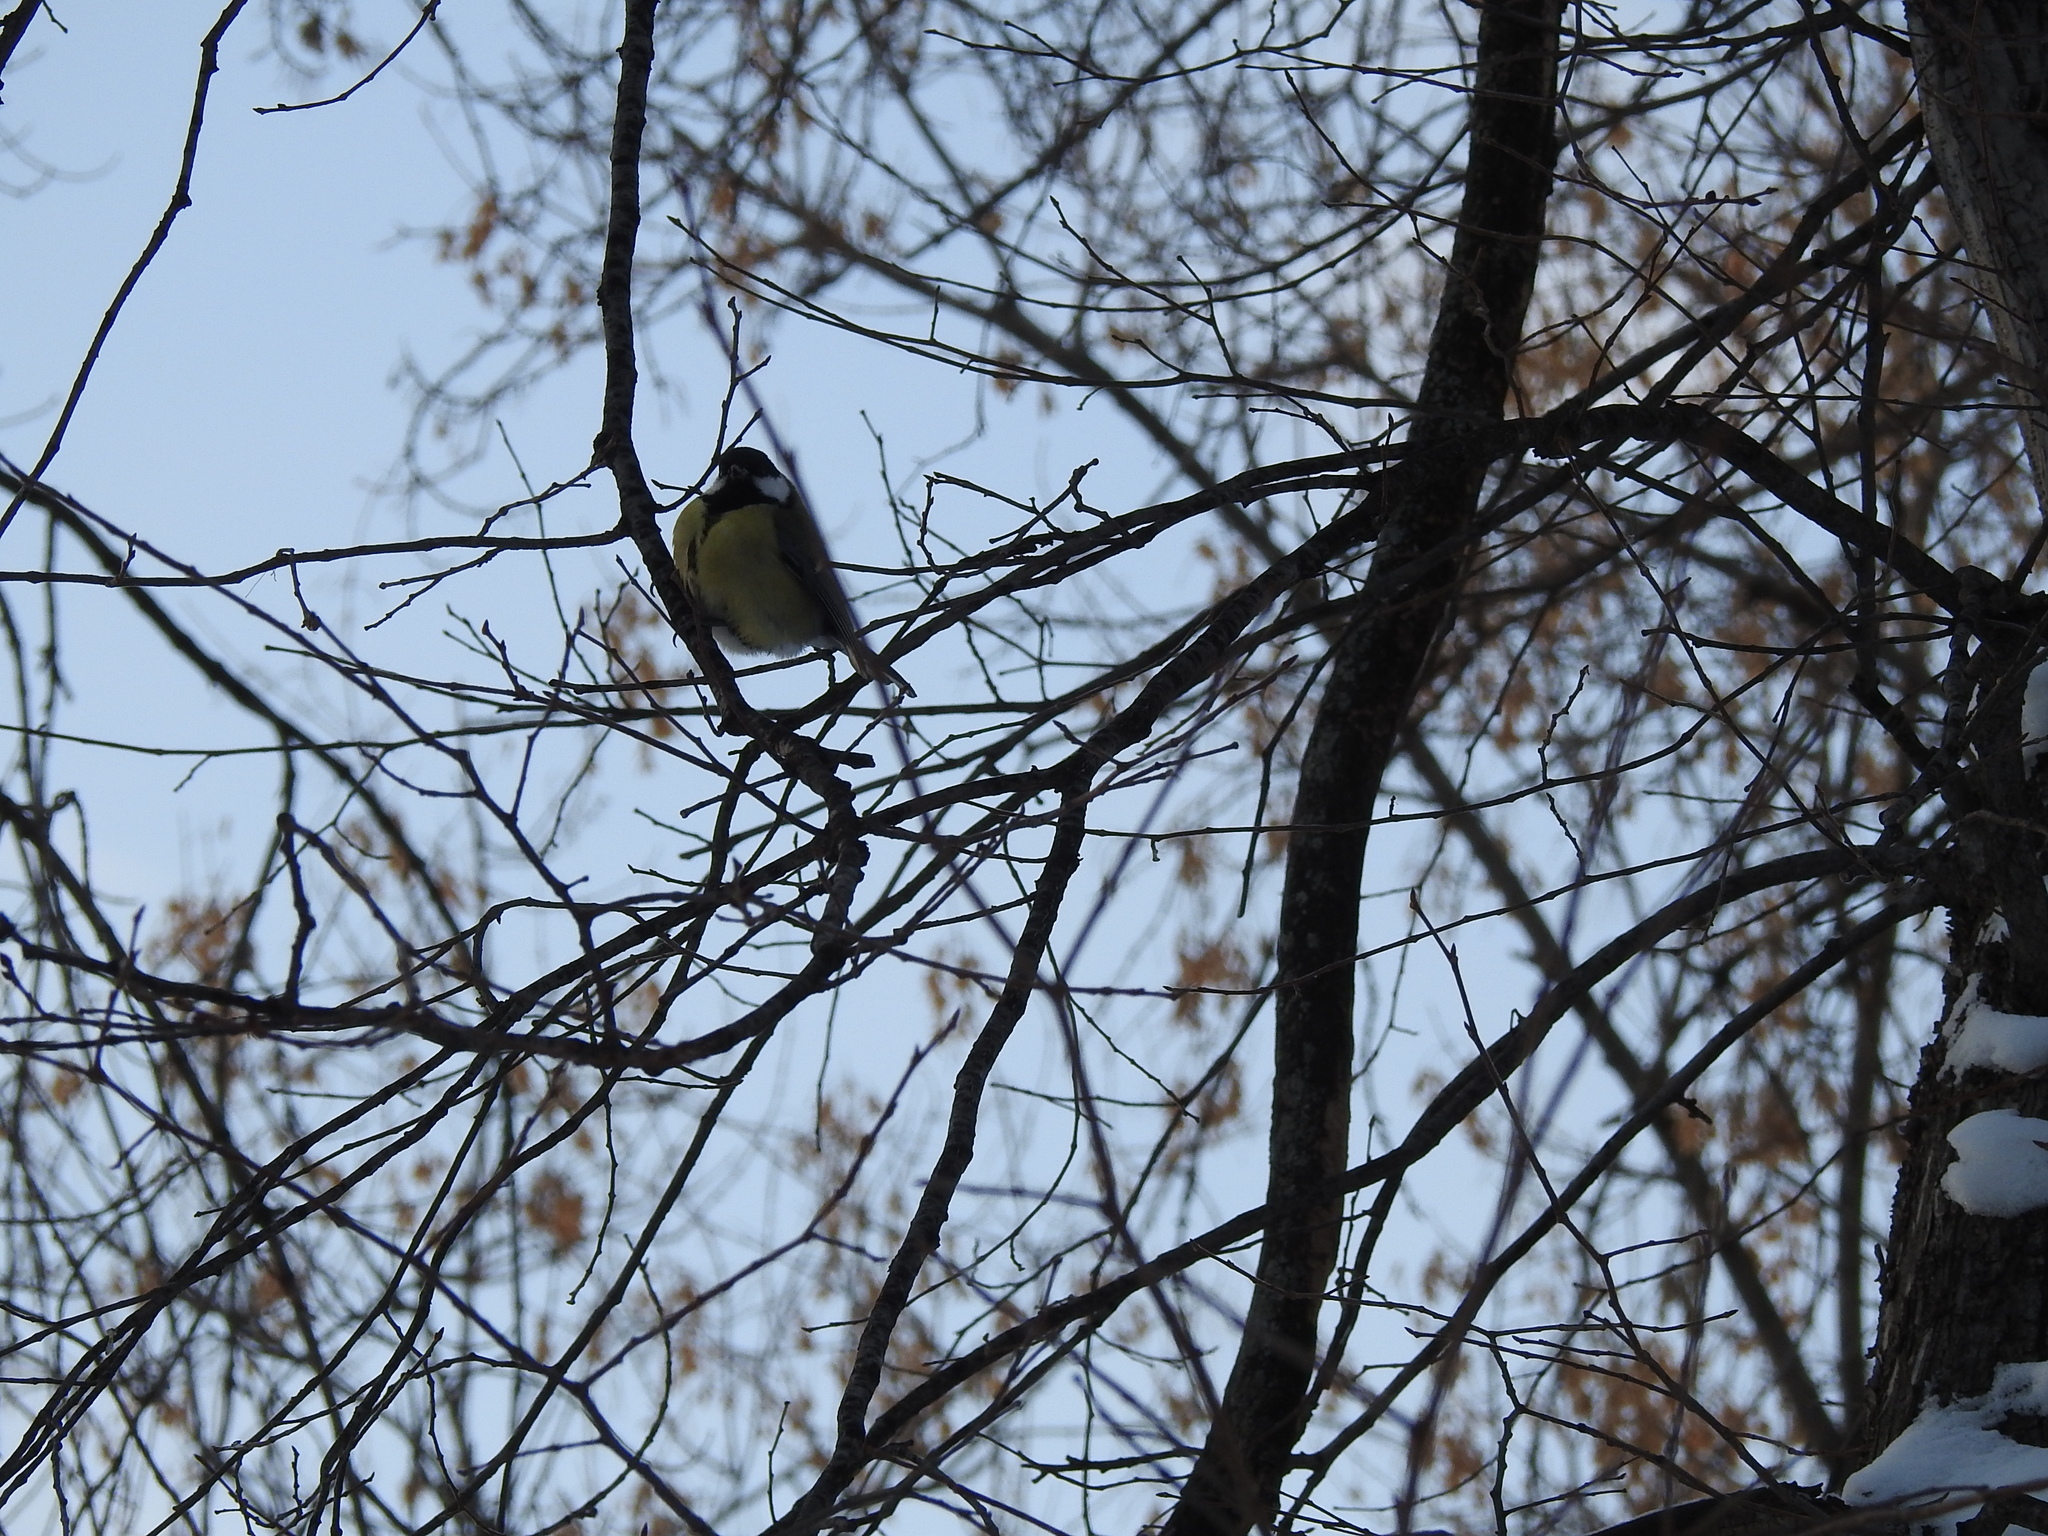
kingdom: Animalia
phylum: Chordata
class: Aves
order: Passeriformes
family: Paridae
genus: Parus
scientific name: Parus major
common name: Great tit
